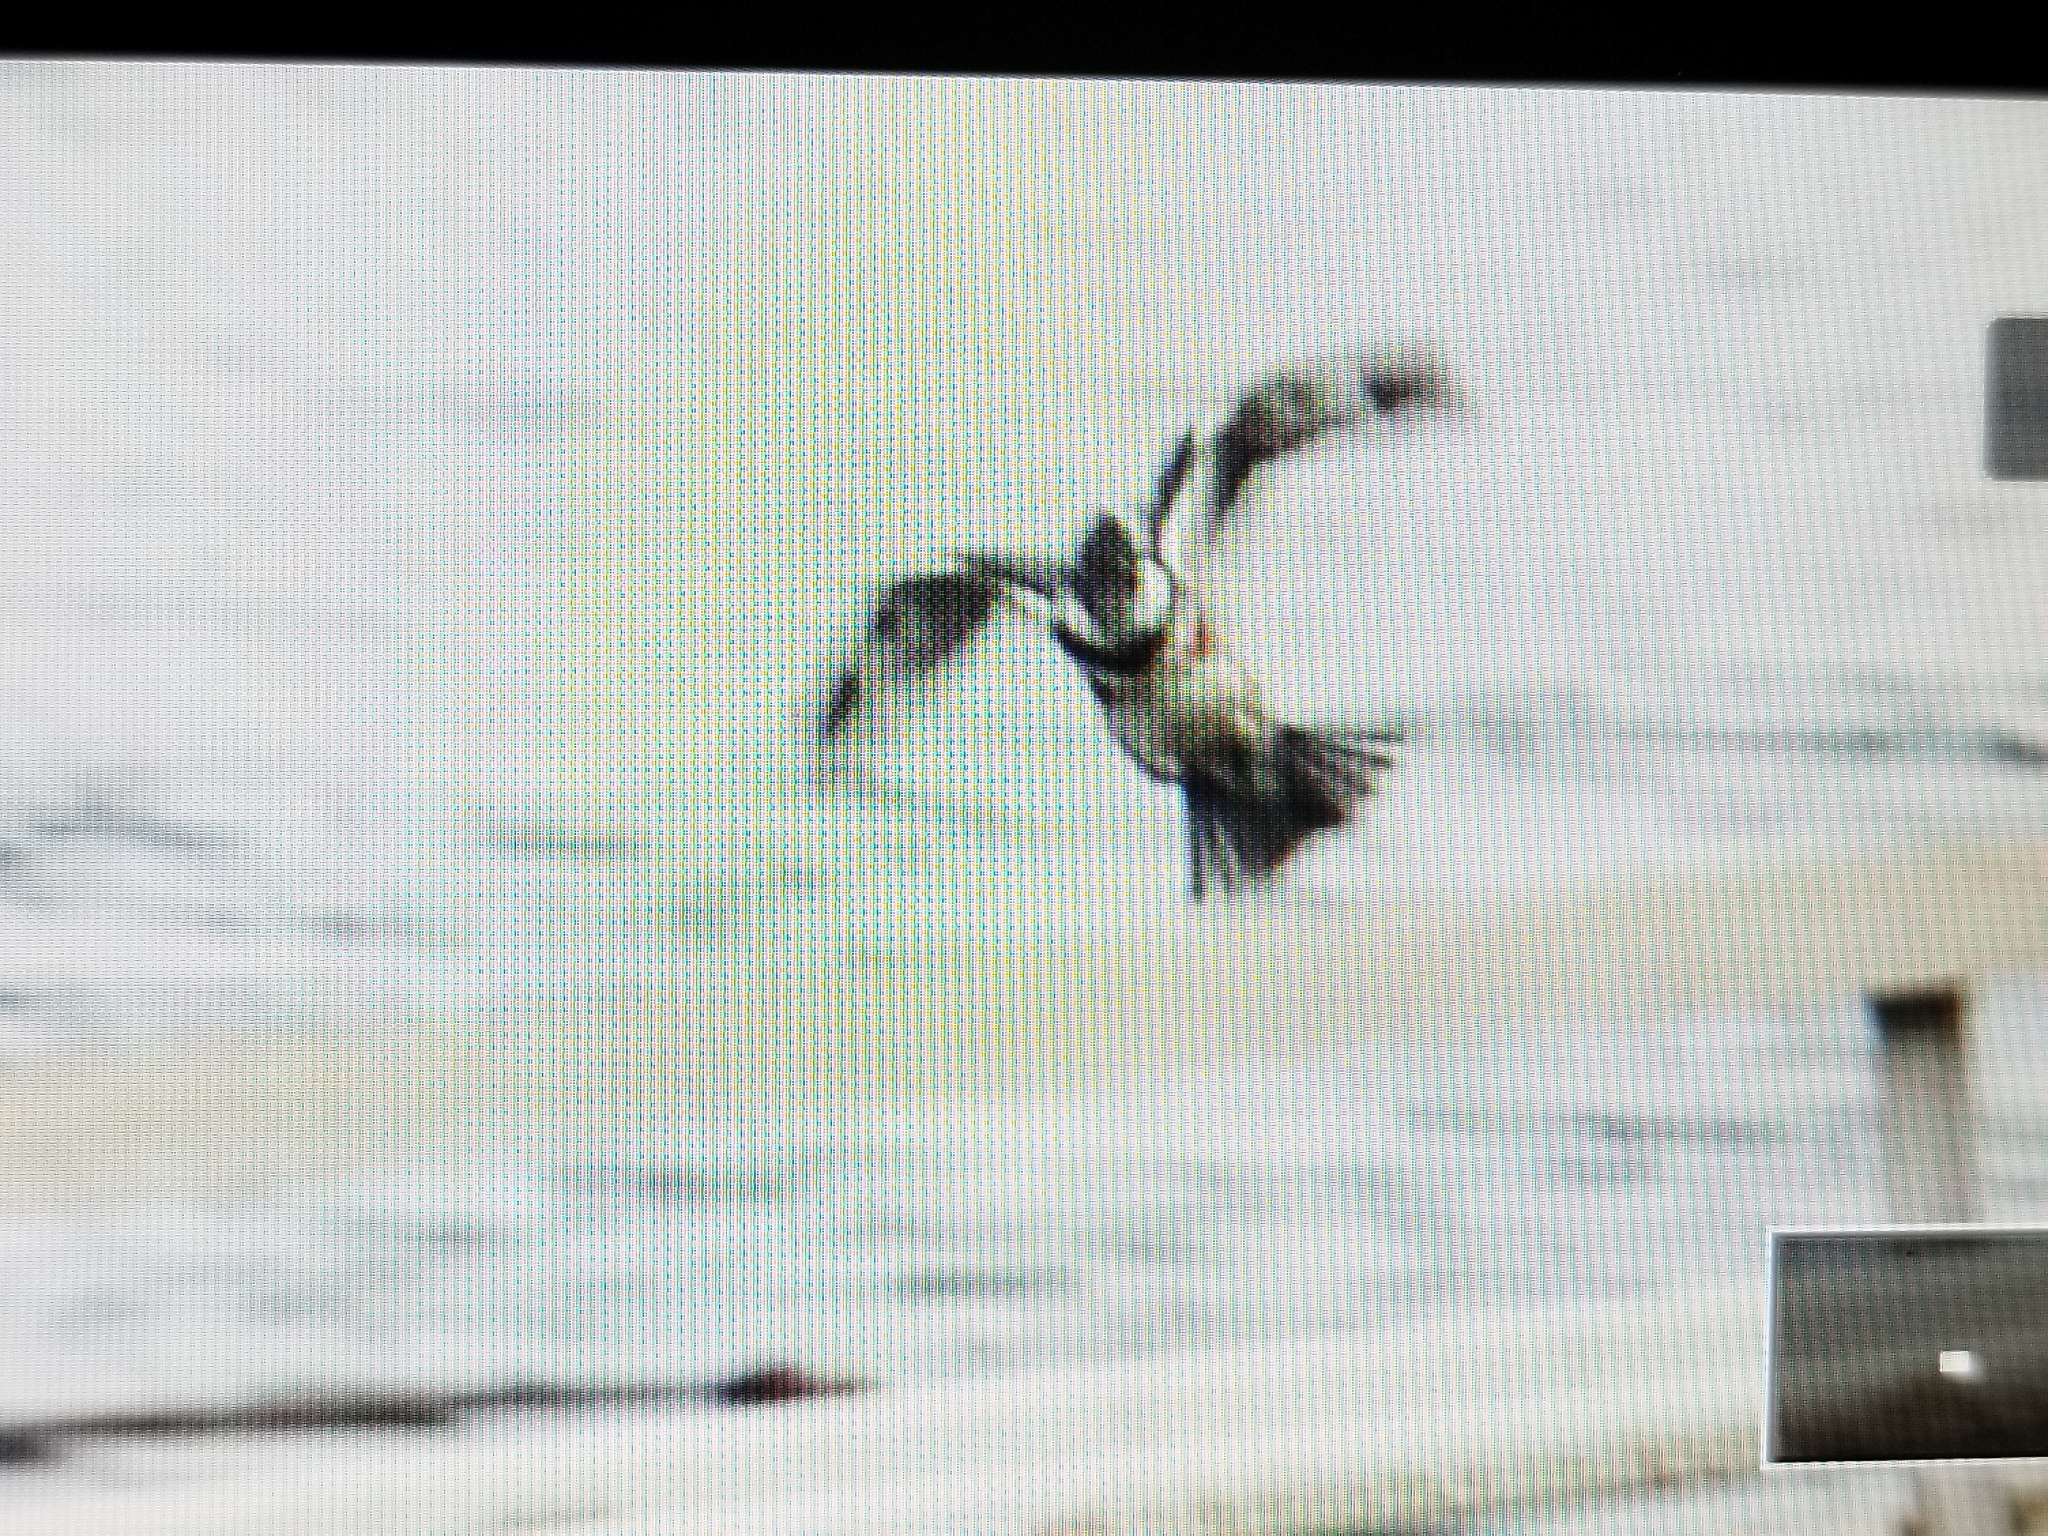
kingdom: Animalia
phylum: Chordata
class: Aves
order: Coraciiformes
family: Alcedinidae
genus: Megaceryle
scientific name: Megaceryle alcyon
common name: Belted kingfisher
